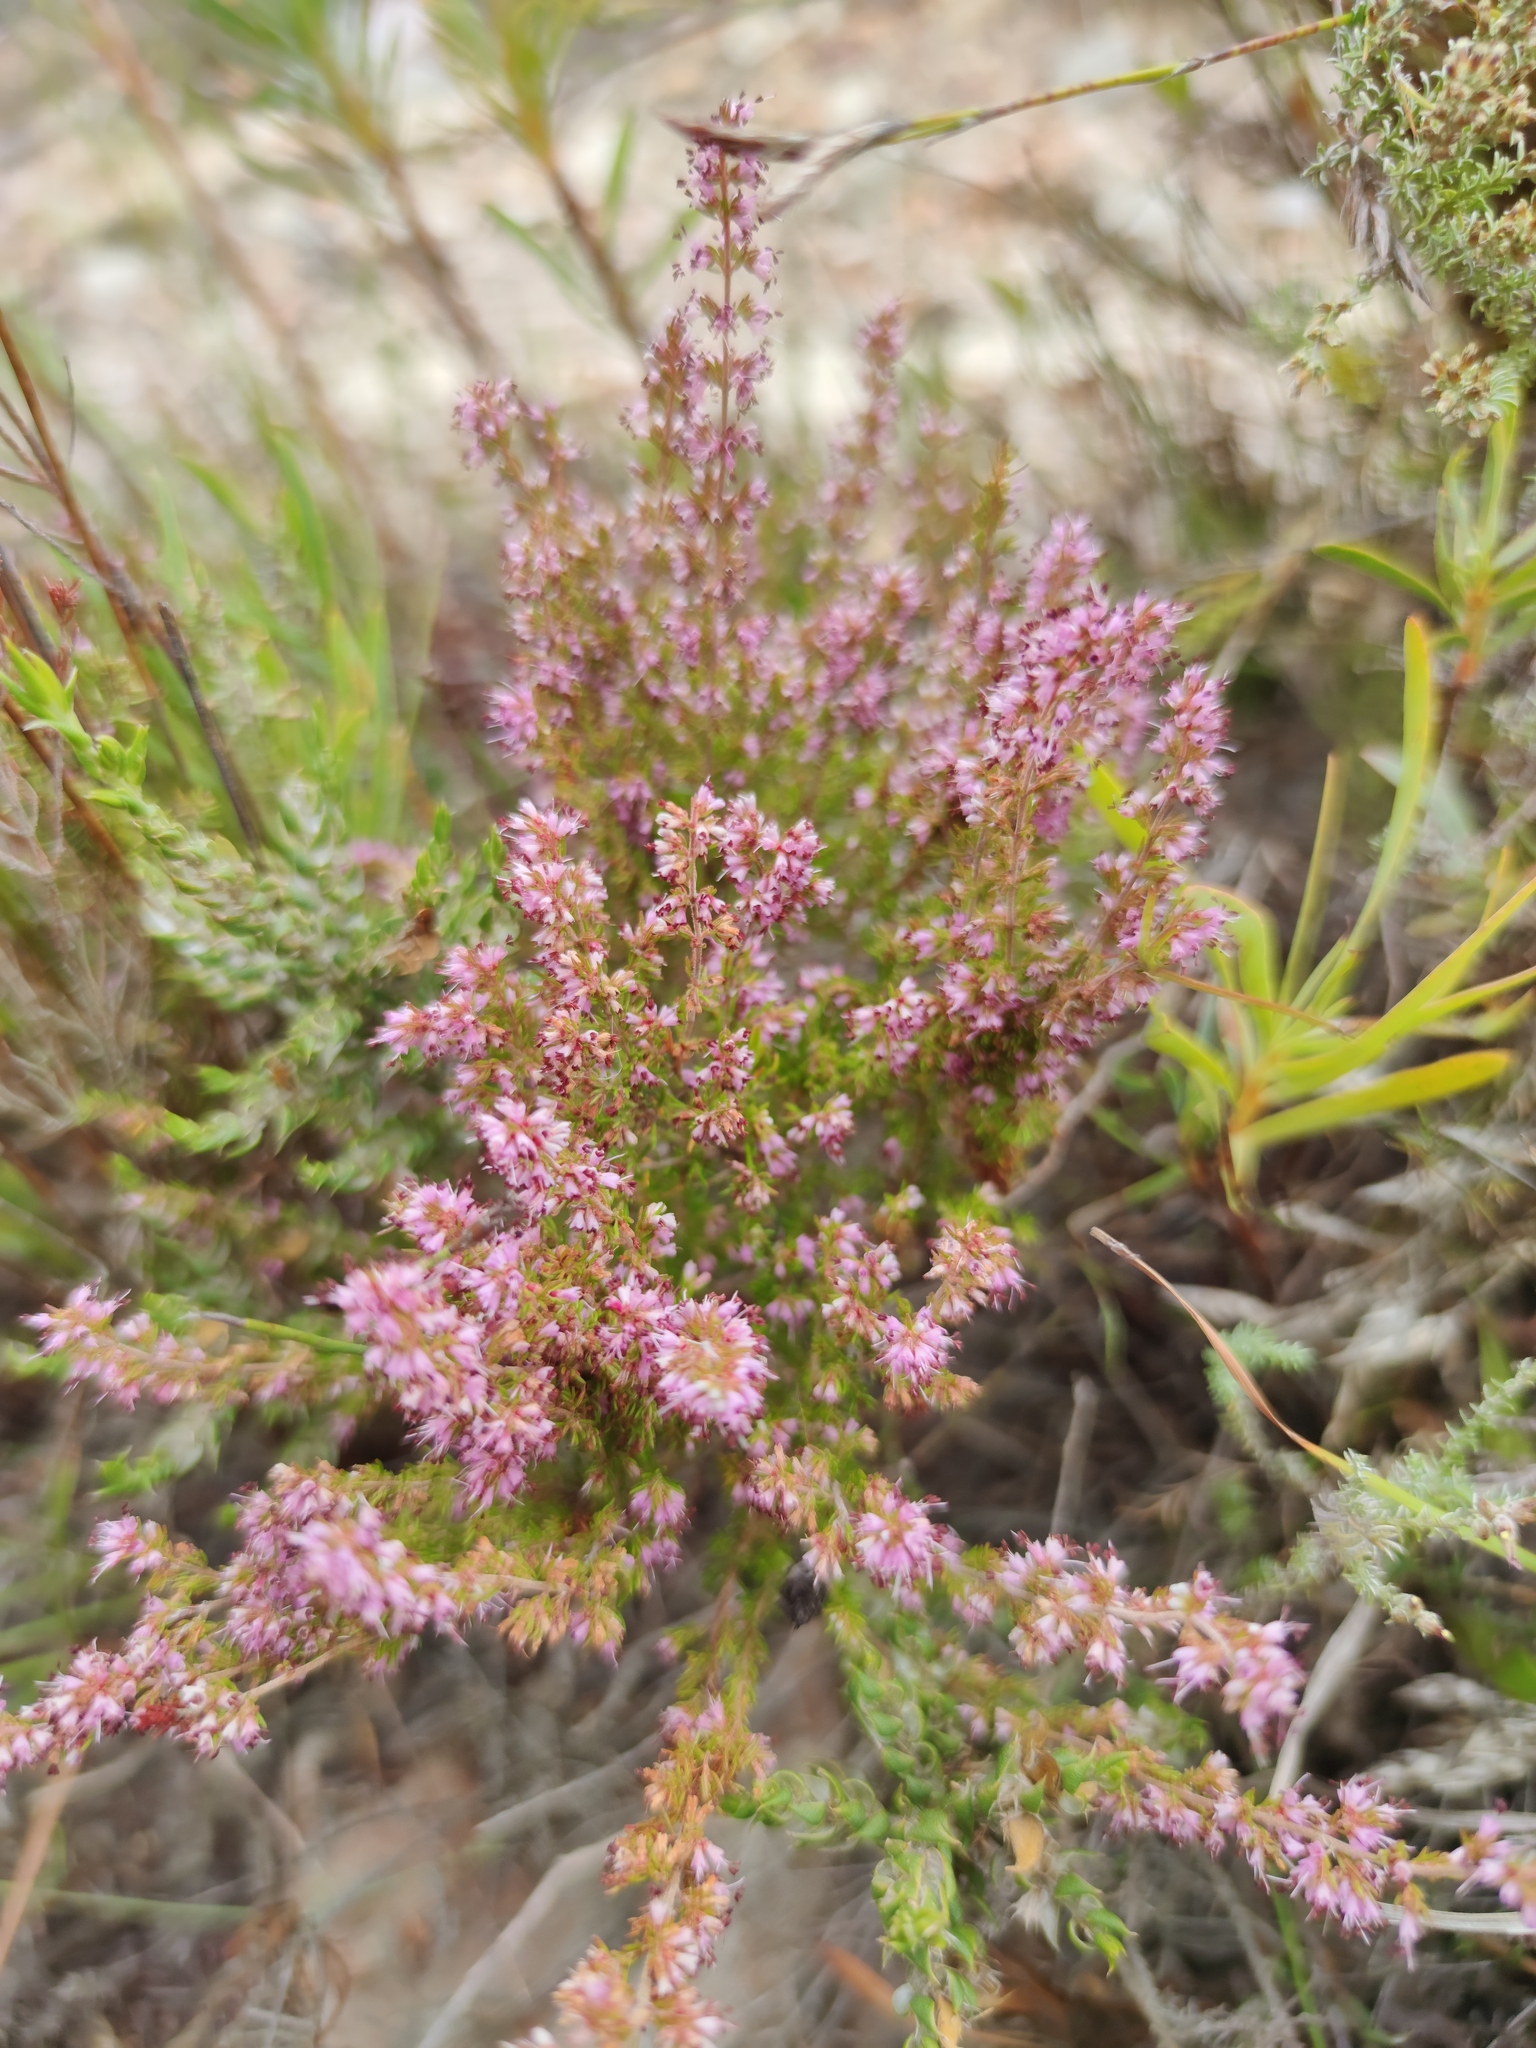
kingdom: Plantae
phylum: Tracheophyta
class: Magnoliopsida
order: Ericales
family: Ericaceae
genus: Erica
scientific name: Erica anguliger
